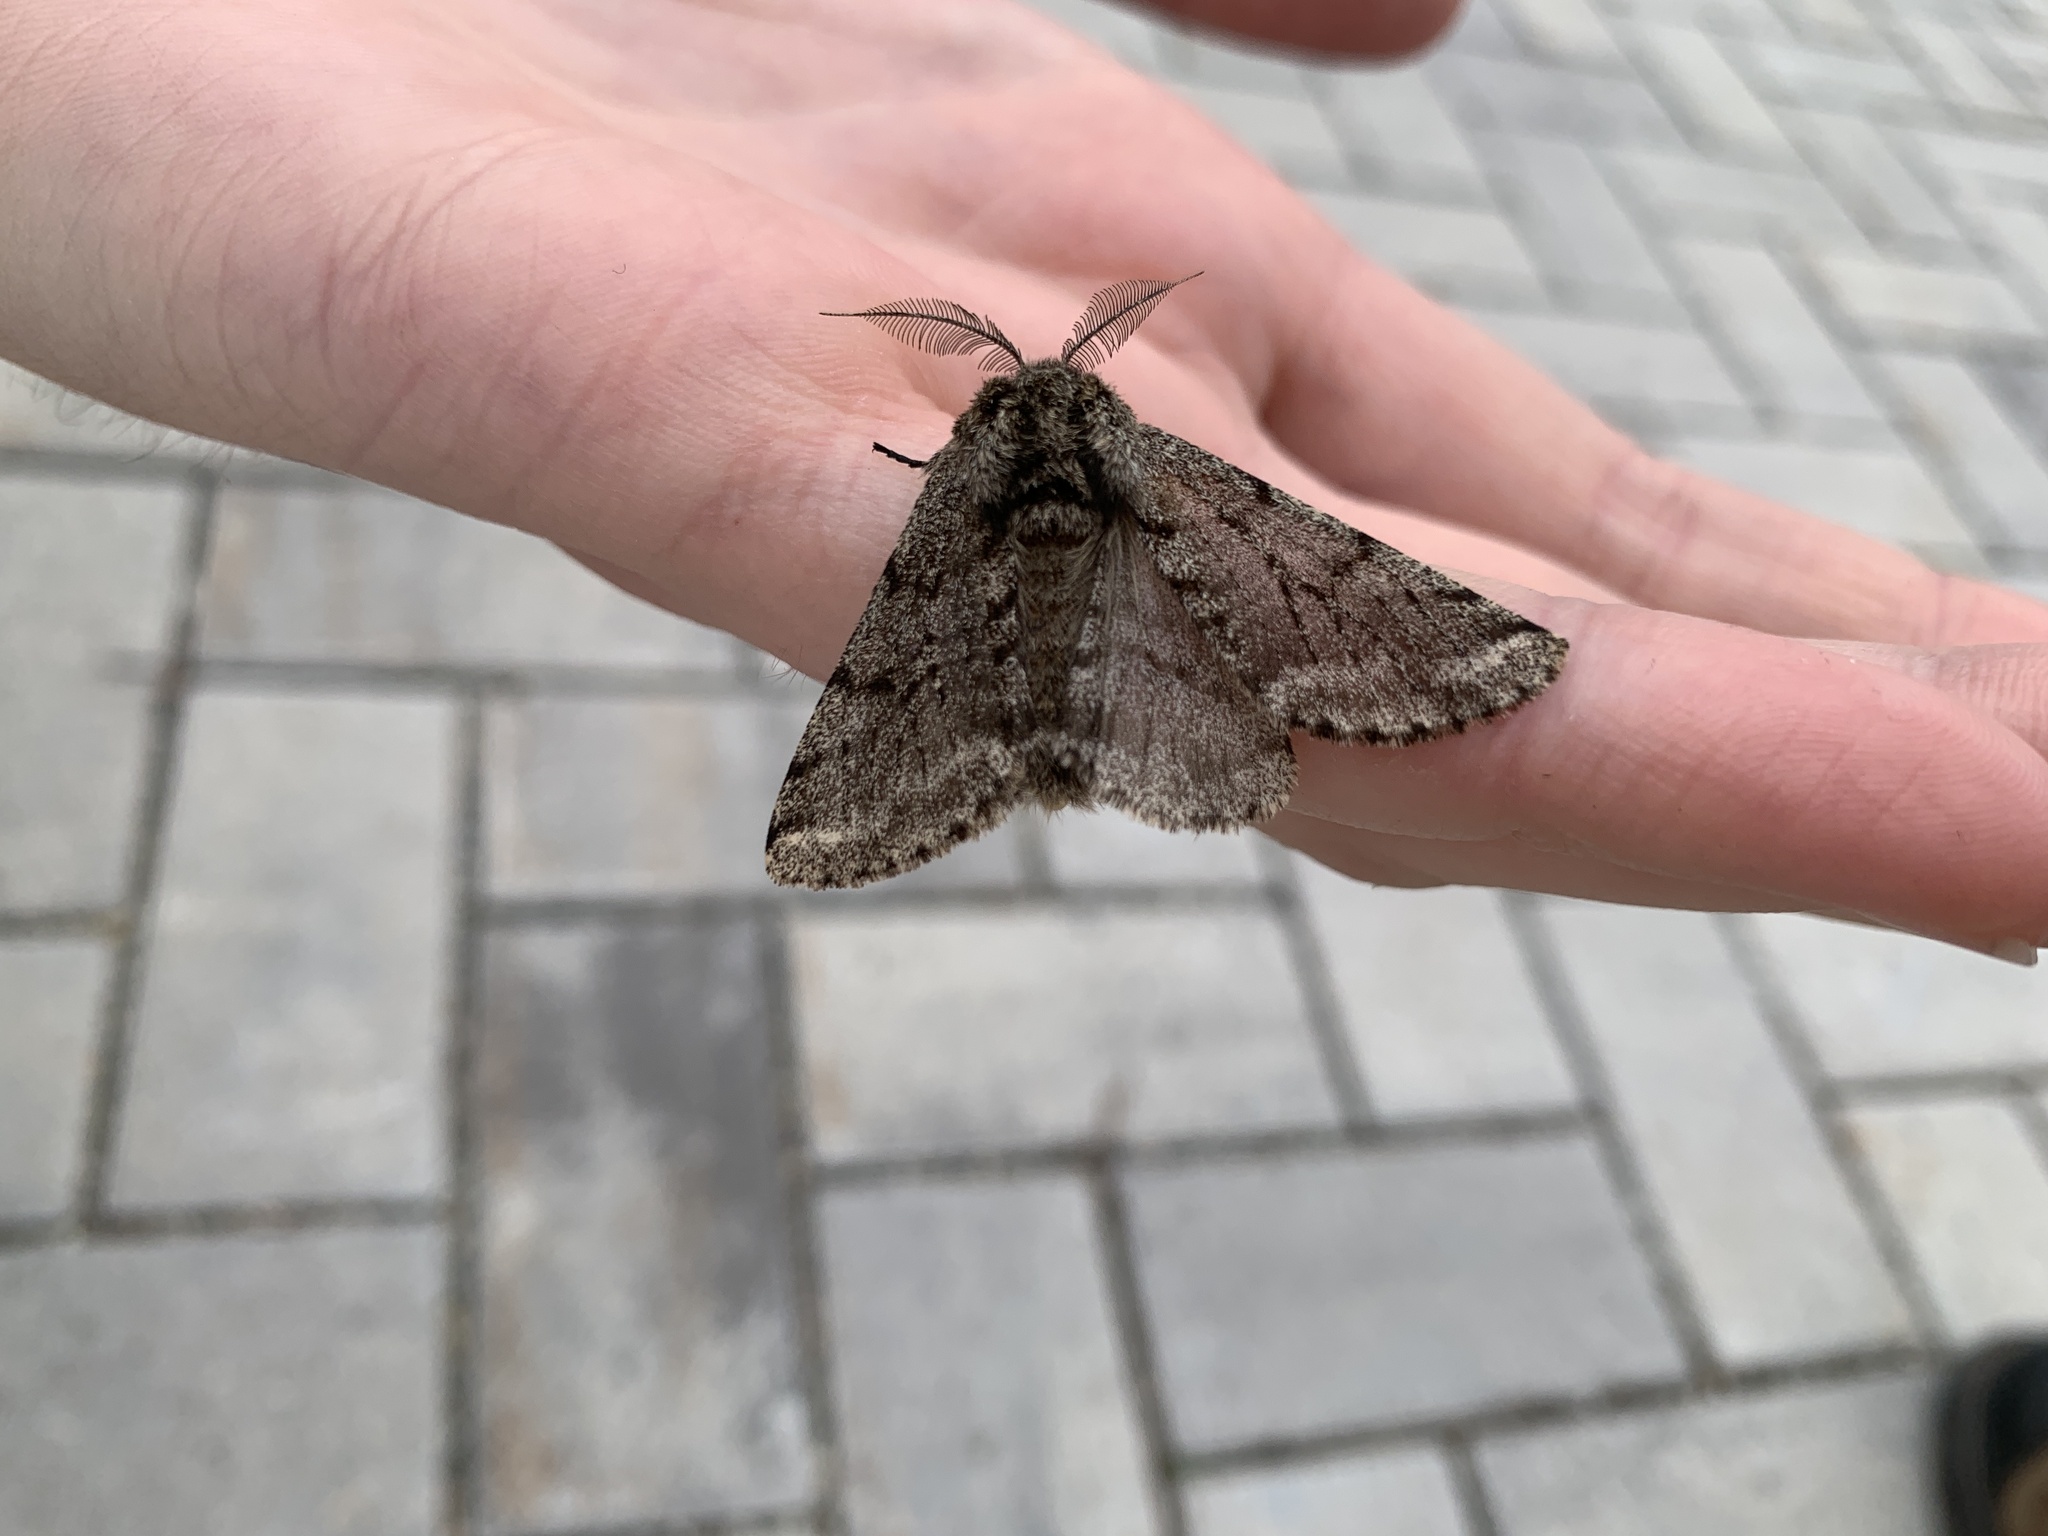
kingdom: Animalia
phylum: Arthropoda
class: Insecta
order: Lepidoptera
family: Geometridae
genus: Lycia
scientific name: Lycia ursaria
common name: Stout spanworm
